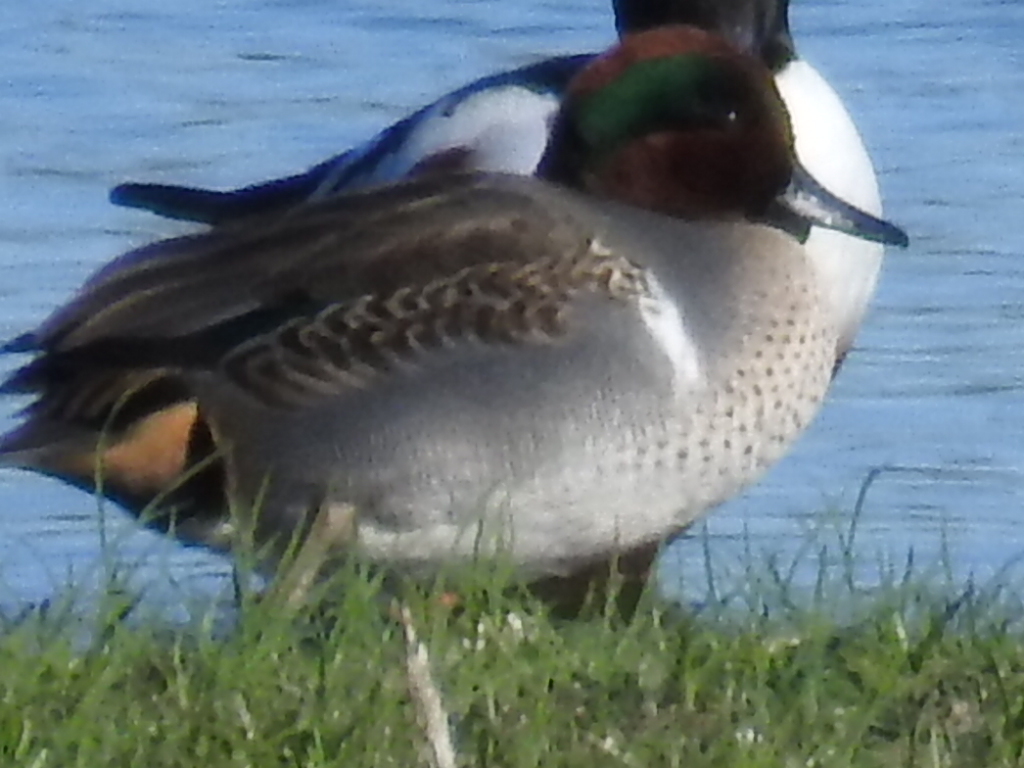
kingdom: Animalia
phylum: Chordata
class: Aves
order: Anseriformes
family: Anatidae
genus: Anas
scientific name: Anas crecca
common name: Eurasian teal
